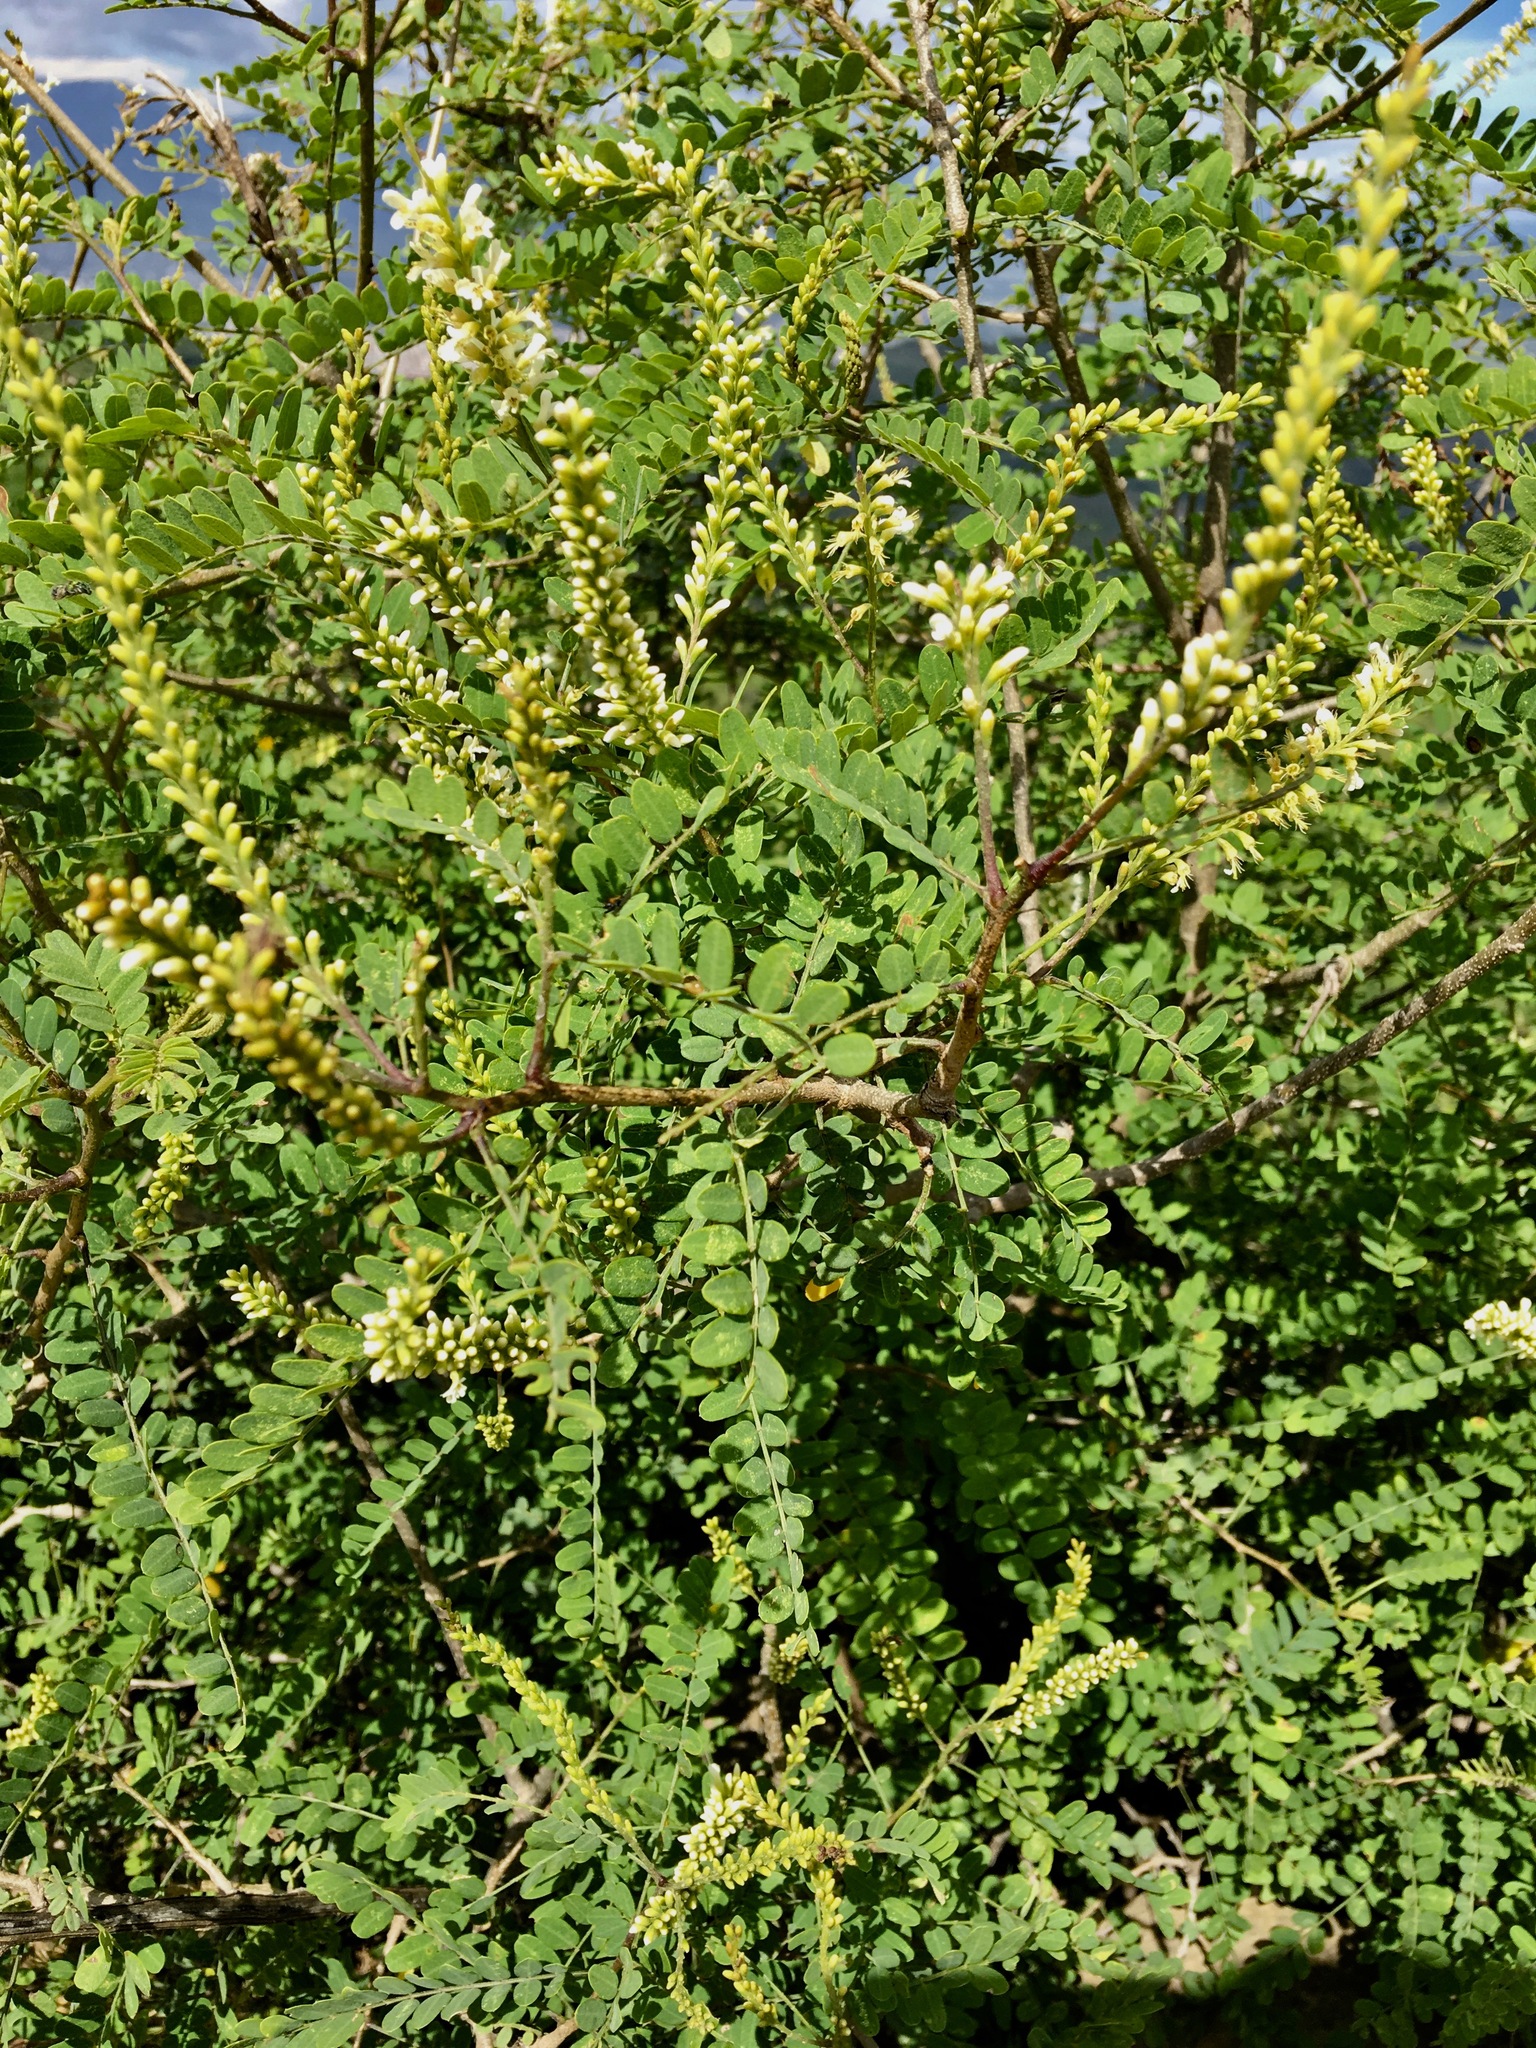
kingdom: Plantae
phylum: Tracheophyta
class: Magnoliopsida
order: Fabales
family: Fabaceae
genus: Eysenhardtia
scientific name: Eysenhardtia polystachya
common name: Kidneywood
